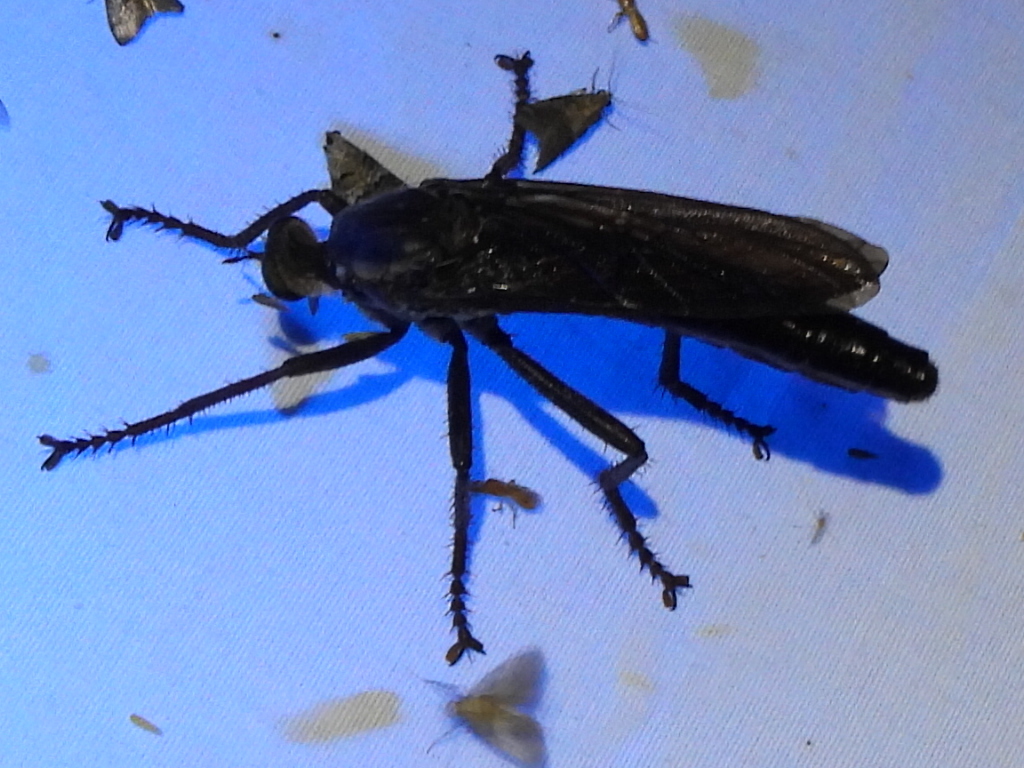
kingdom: Animalia
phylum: Arthropoda
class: Insecta
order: Diptera
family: Asilidae
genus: Microstylum
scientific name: Microstylum morosum
